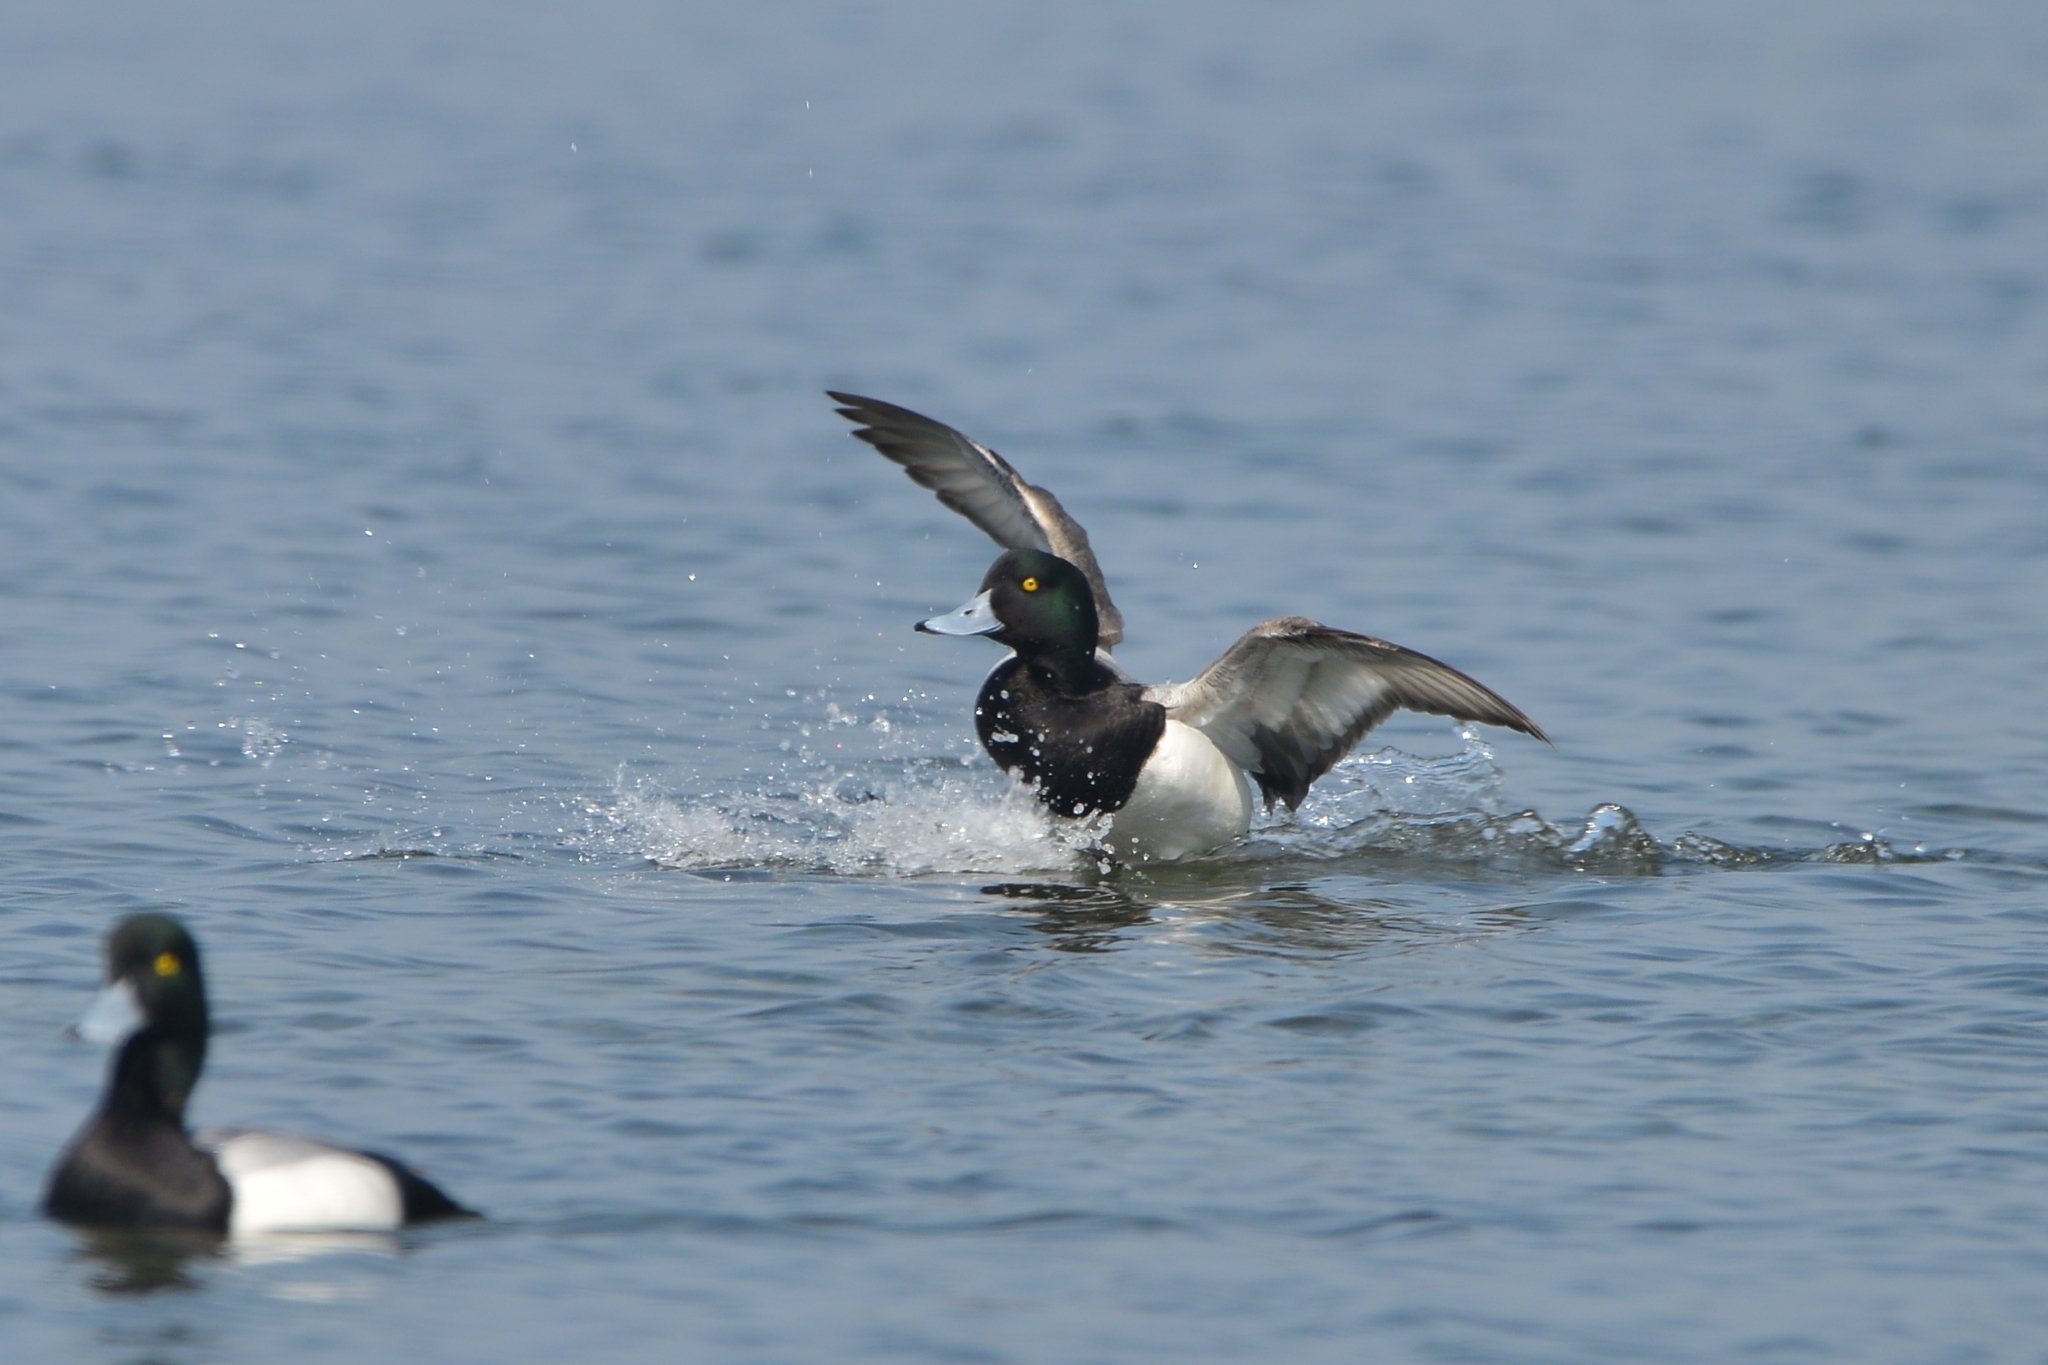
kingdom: Animalia
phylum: Chordata
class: Aves
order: Anseriformes
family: Anatidae
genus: Aythya
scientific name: Aythya marila
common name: Greater scaup
